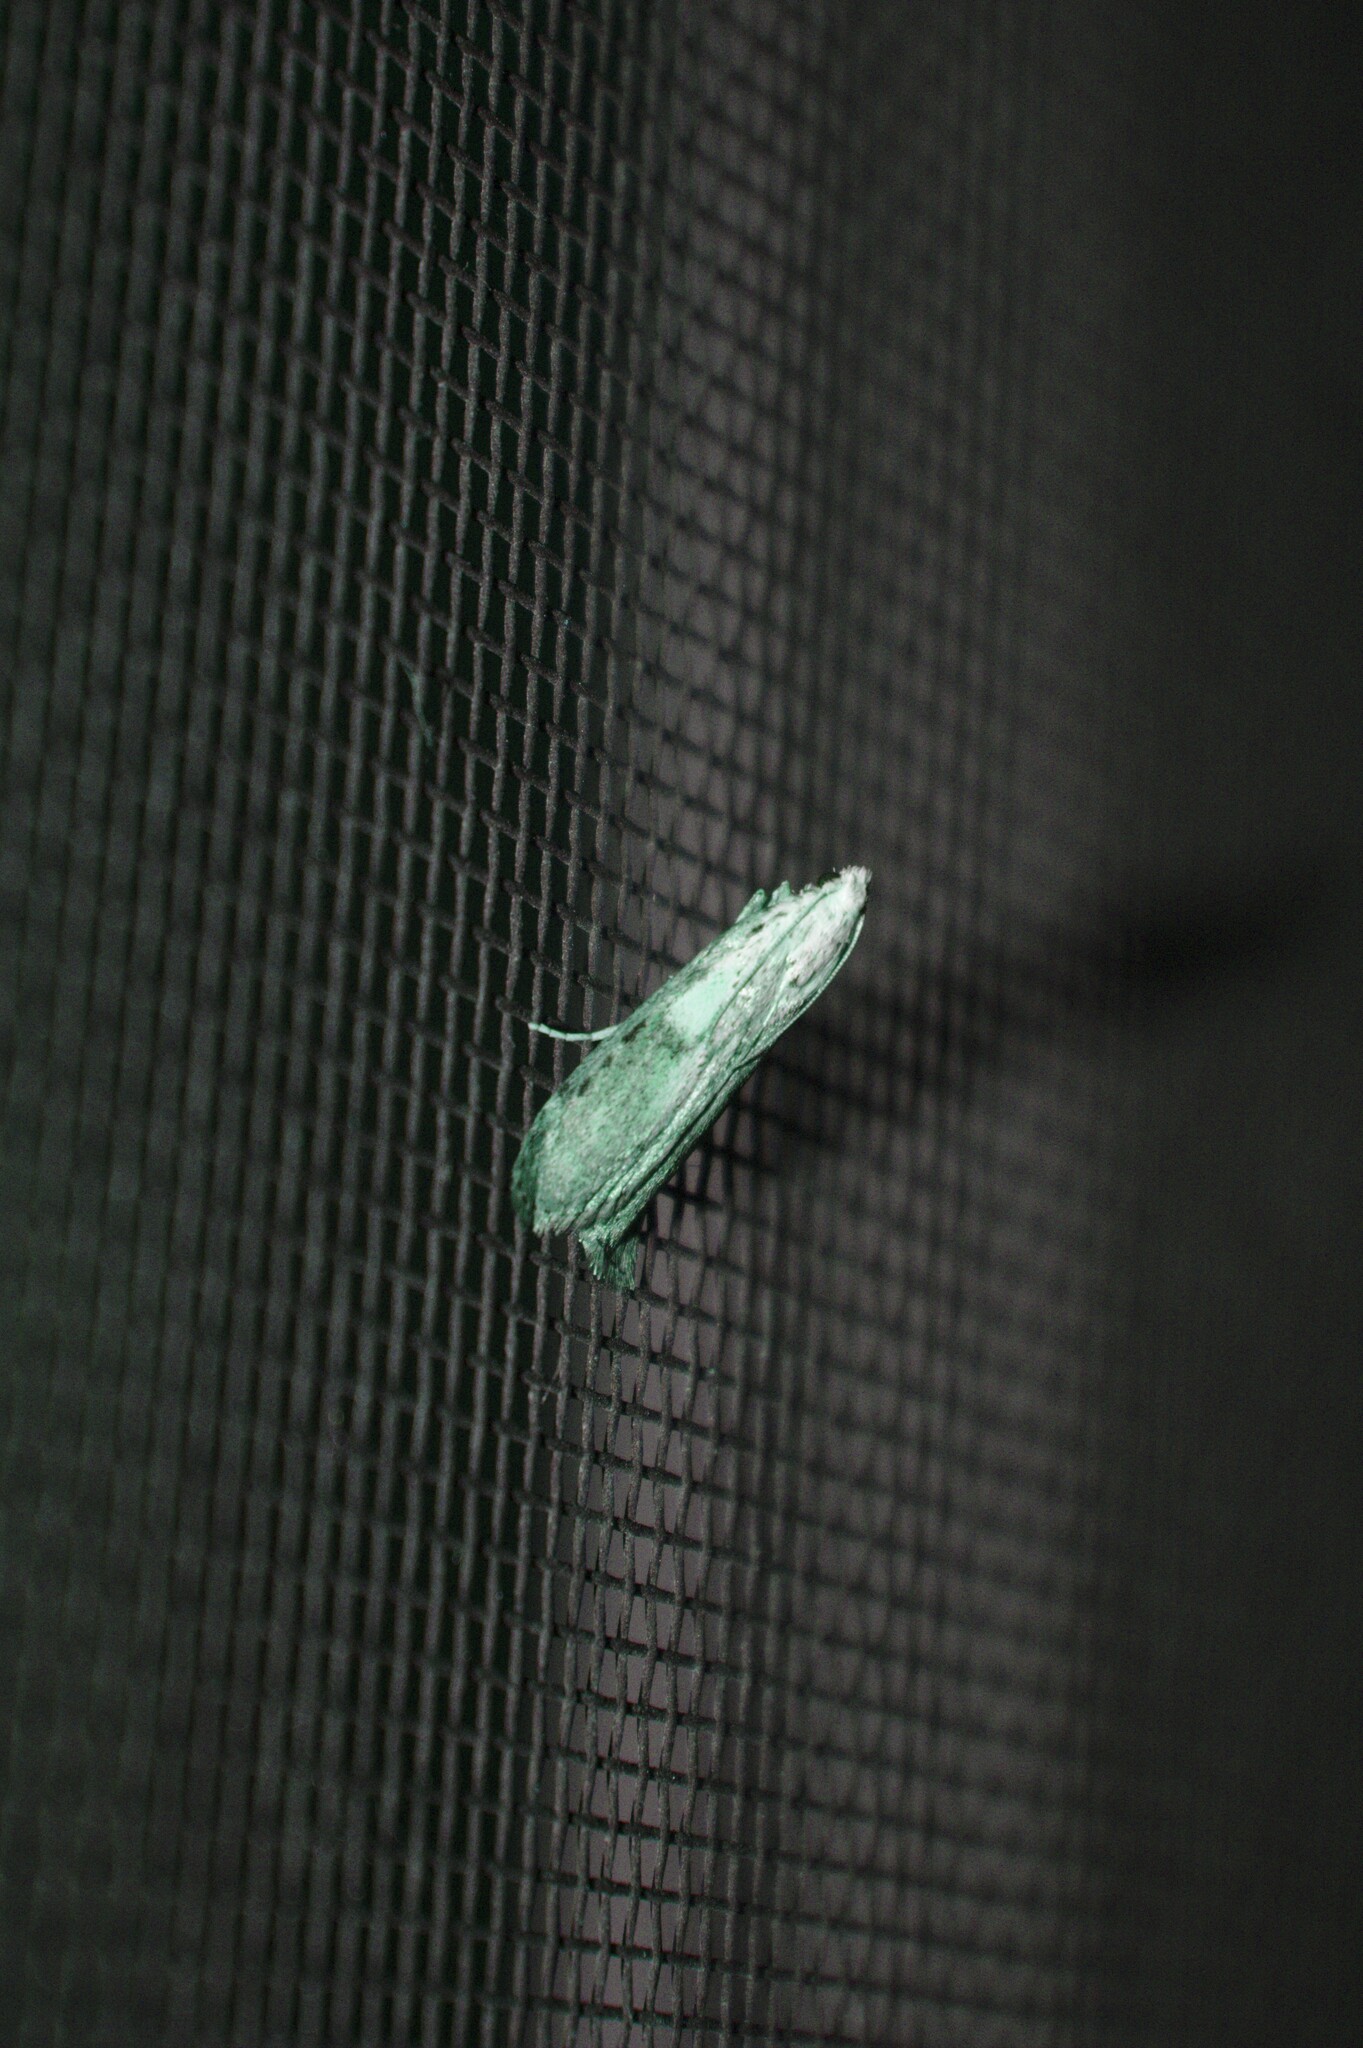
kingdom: Animalia
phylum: Arthropoda
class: Insecta
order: Lepidoptera
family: Pyralidae
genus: Aphomia
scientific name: Aphomia sociella
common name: Bee moth
